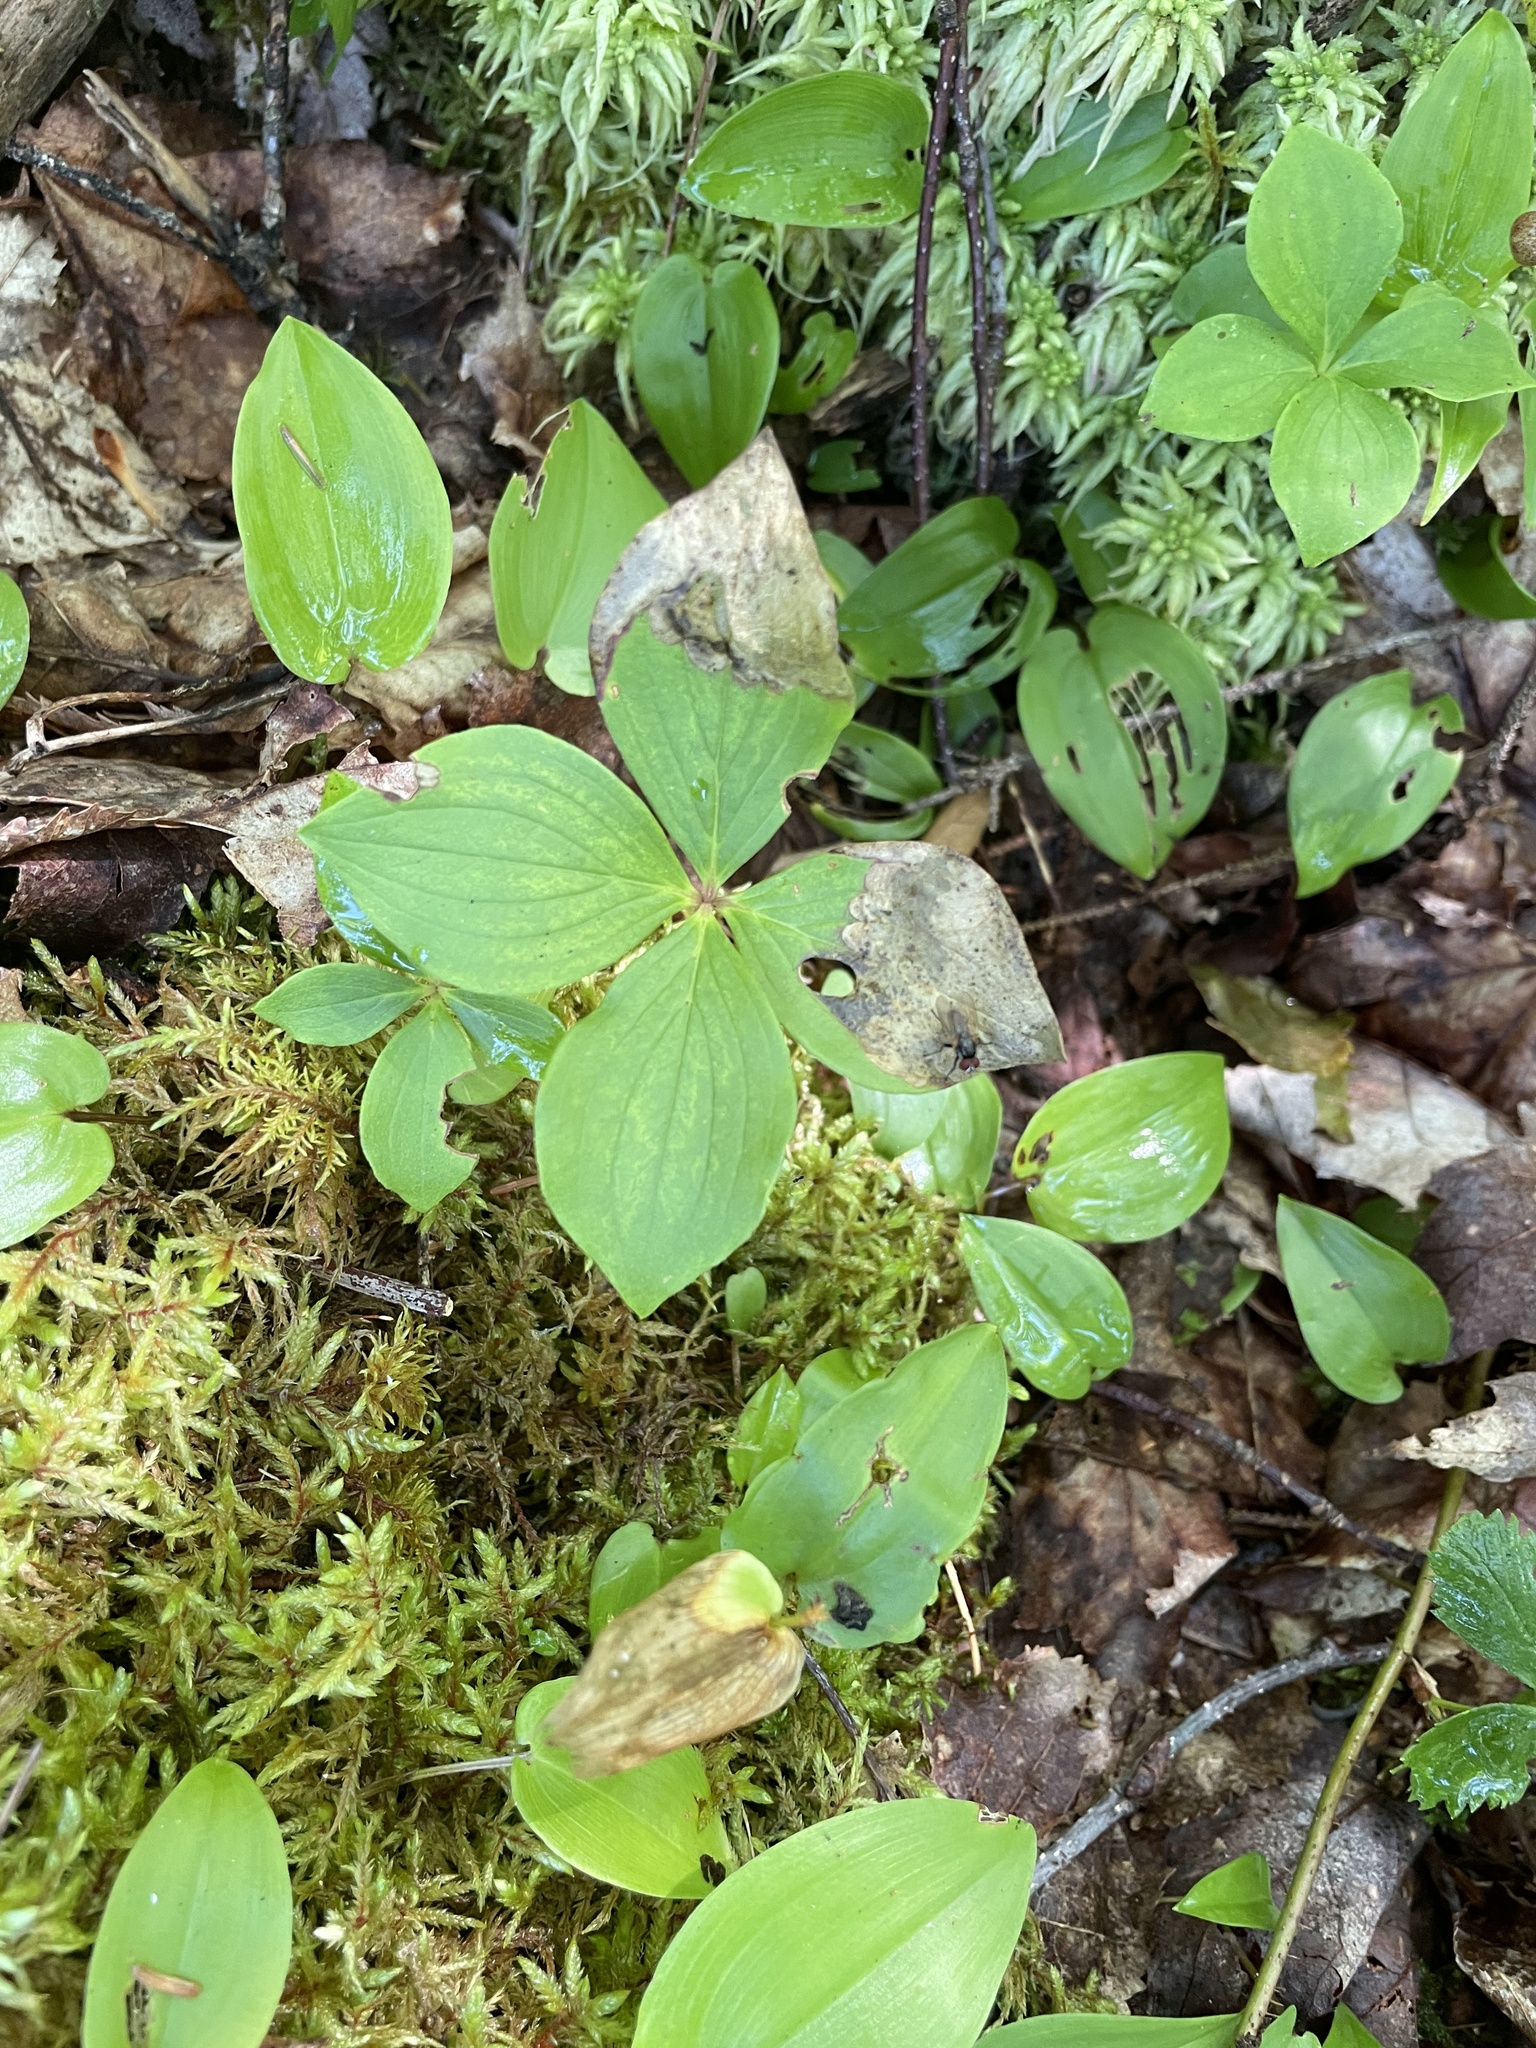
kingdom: Plantae
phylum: Tracheophyta
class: Magnoliopsida
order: Cornales
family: Cornaceae
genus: Cornus
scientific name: Cornus canadensis
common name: Creeping dogwood
